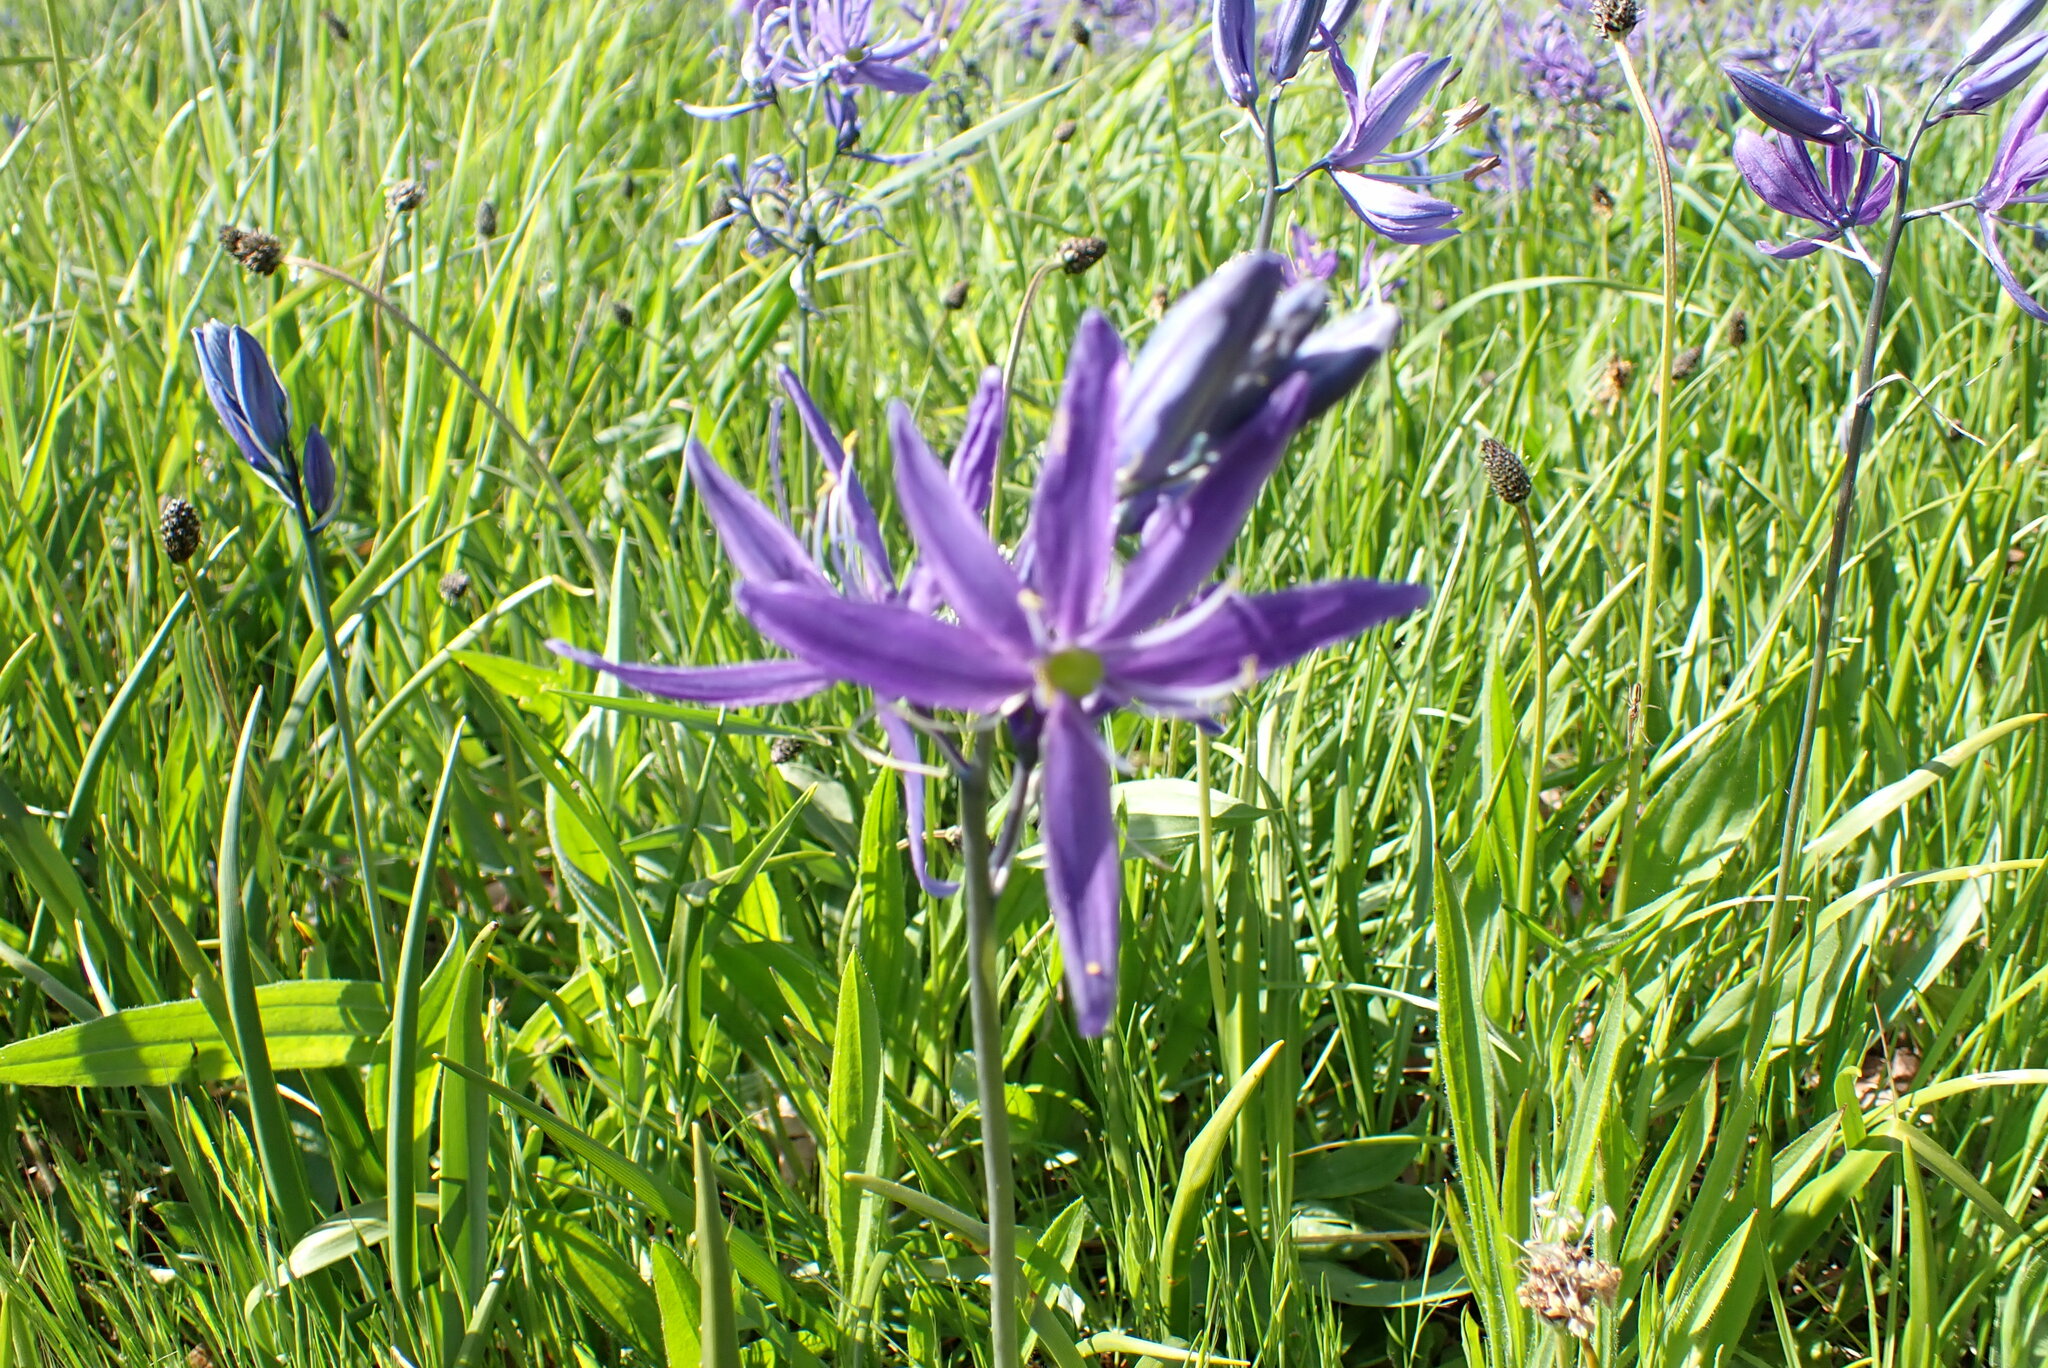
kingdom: Plantae
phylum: Tracheophyta
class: Liliopsida
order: Asparagales
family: Asparagaceae
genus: Camassia
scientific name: Camassia quamash
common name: Common camas
